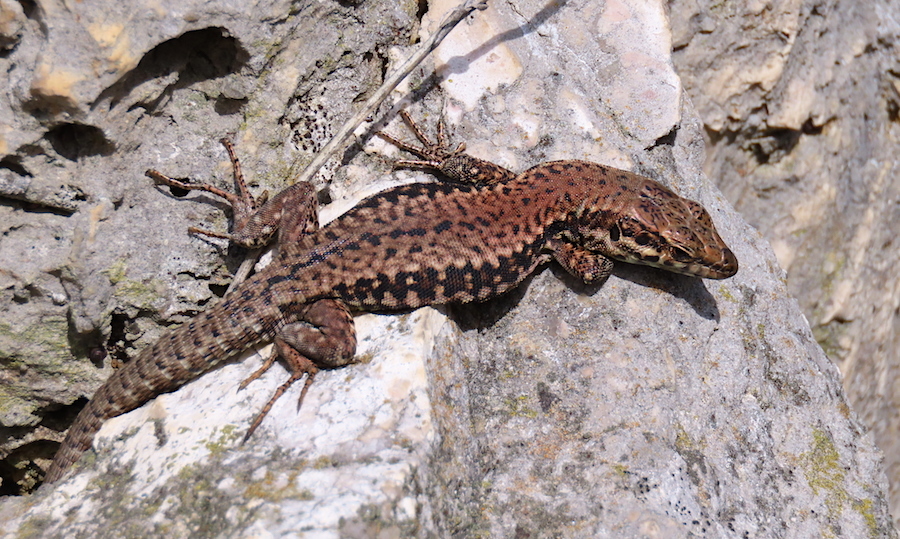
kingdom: Animalia
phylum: Chordata
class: Squamata
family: Lacertidae
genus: Podarcis
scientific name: Podarcis muralis
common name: Common wall lizard
